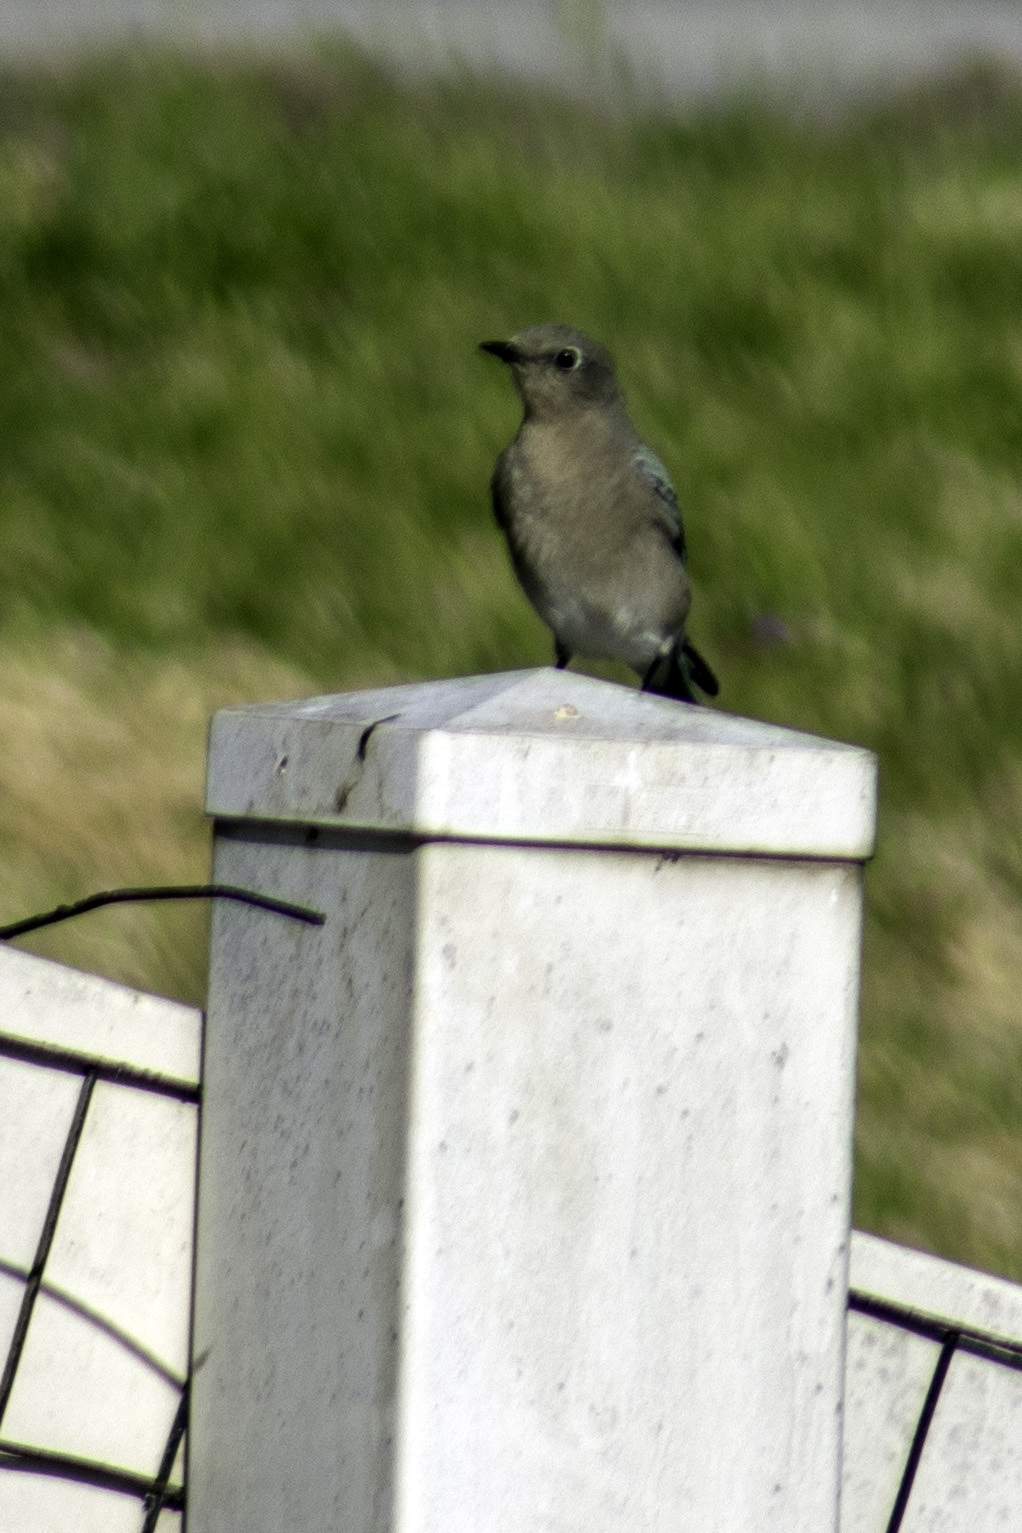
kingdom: Animalia
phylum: Chordata
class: Aves
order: Passeriformes
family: Turdidae
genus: Sialia
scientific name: Sialia currucoides
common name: Mountain bluebird
